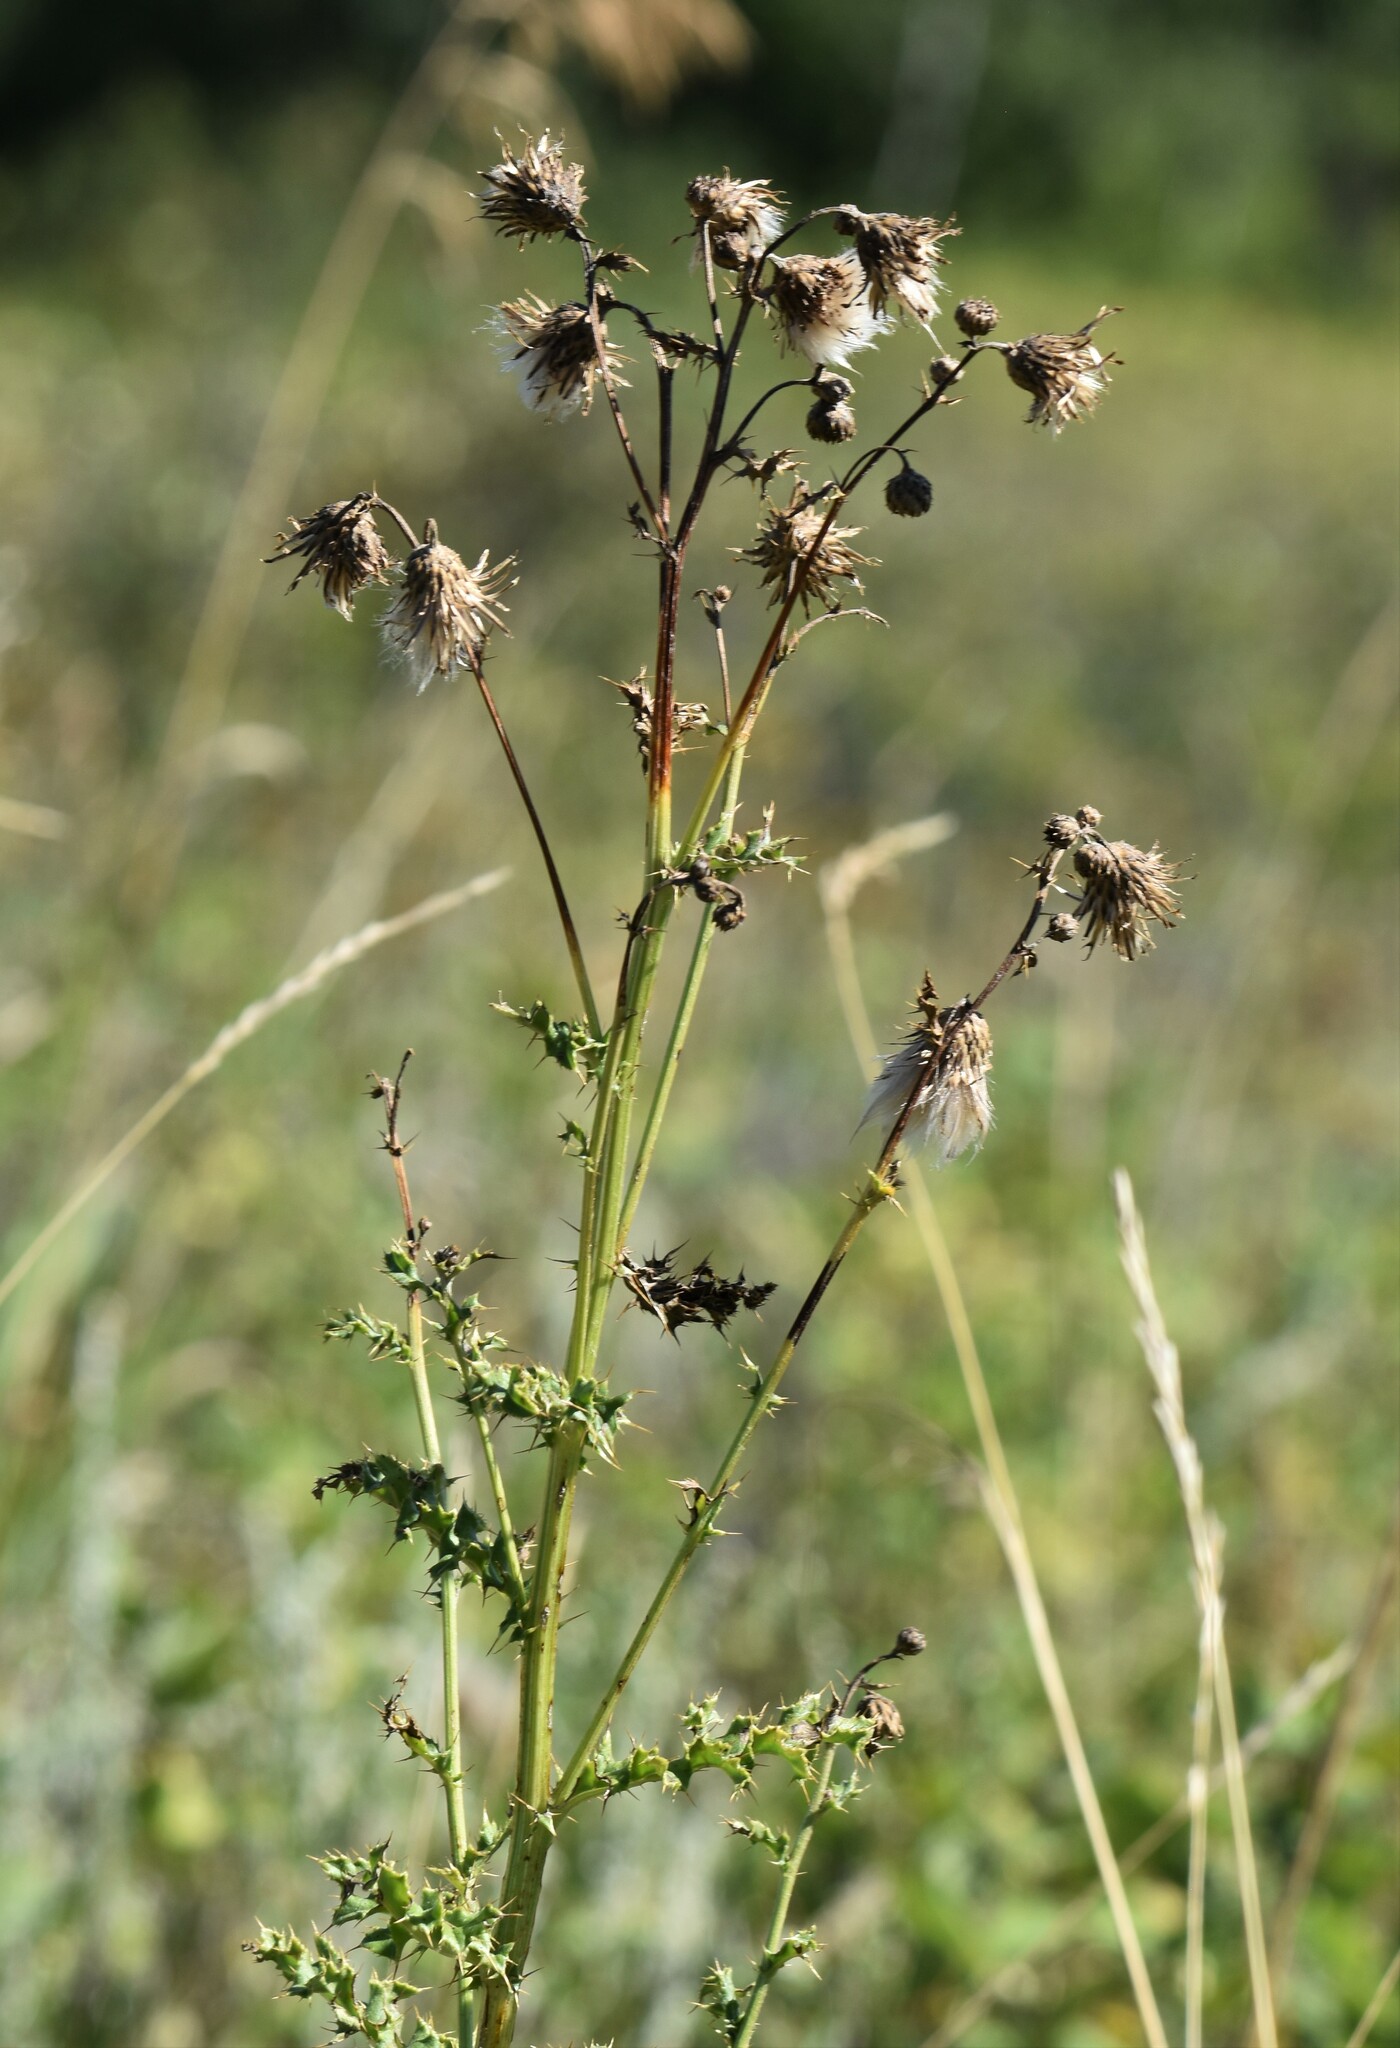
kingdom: Plantae
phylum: Tracheophyta
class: Magnoliopsida
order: Asterales
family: Asteraceae
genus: Cirsium
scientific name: Cirsium arvense
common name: Creeping thistle
